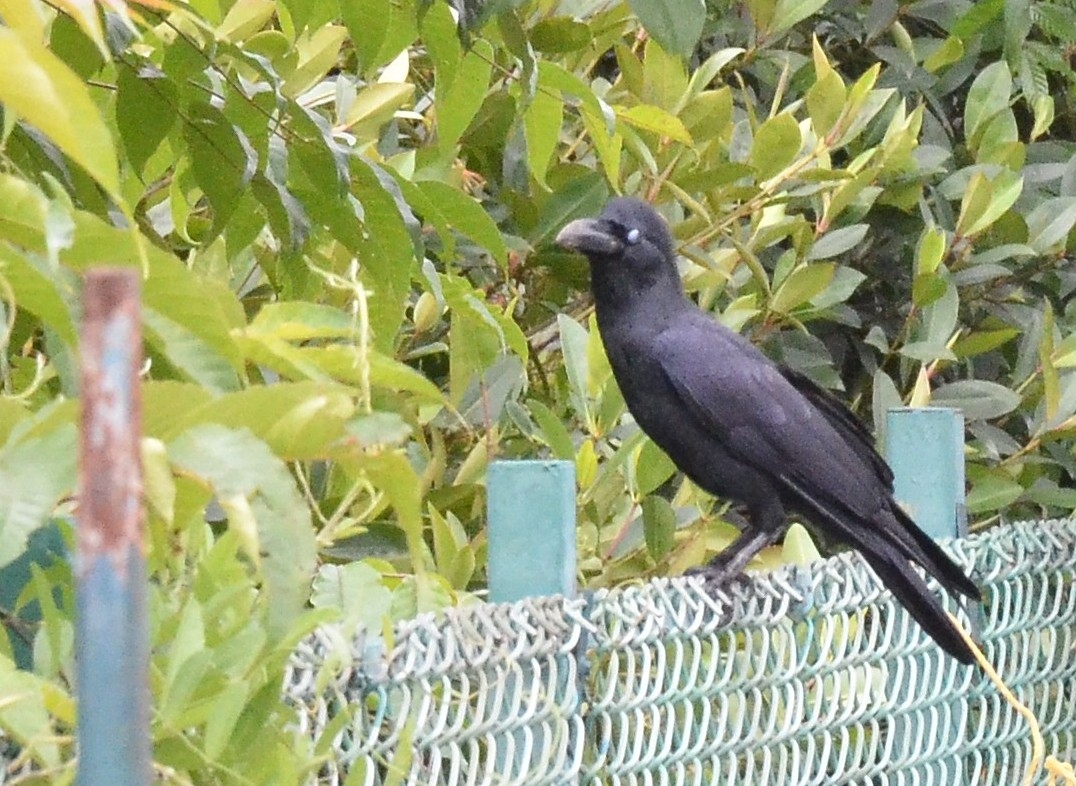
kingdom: Animalia
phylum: Chordata
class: Aves
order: Passeriformes
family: Corvidae
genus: Corvus
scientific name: Corvus macrorhynchos
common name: Large-billed crow
